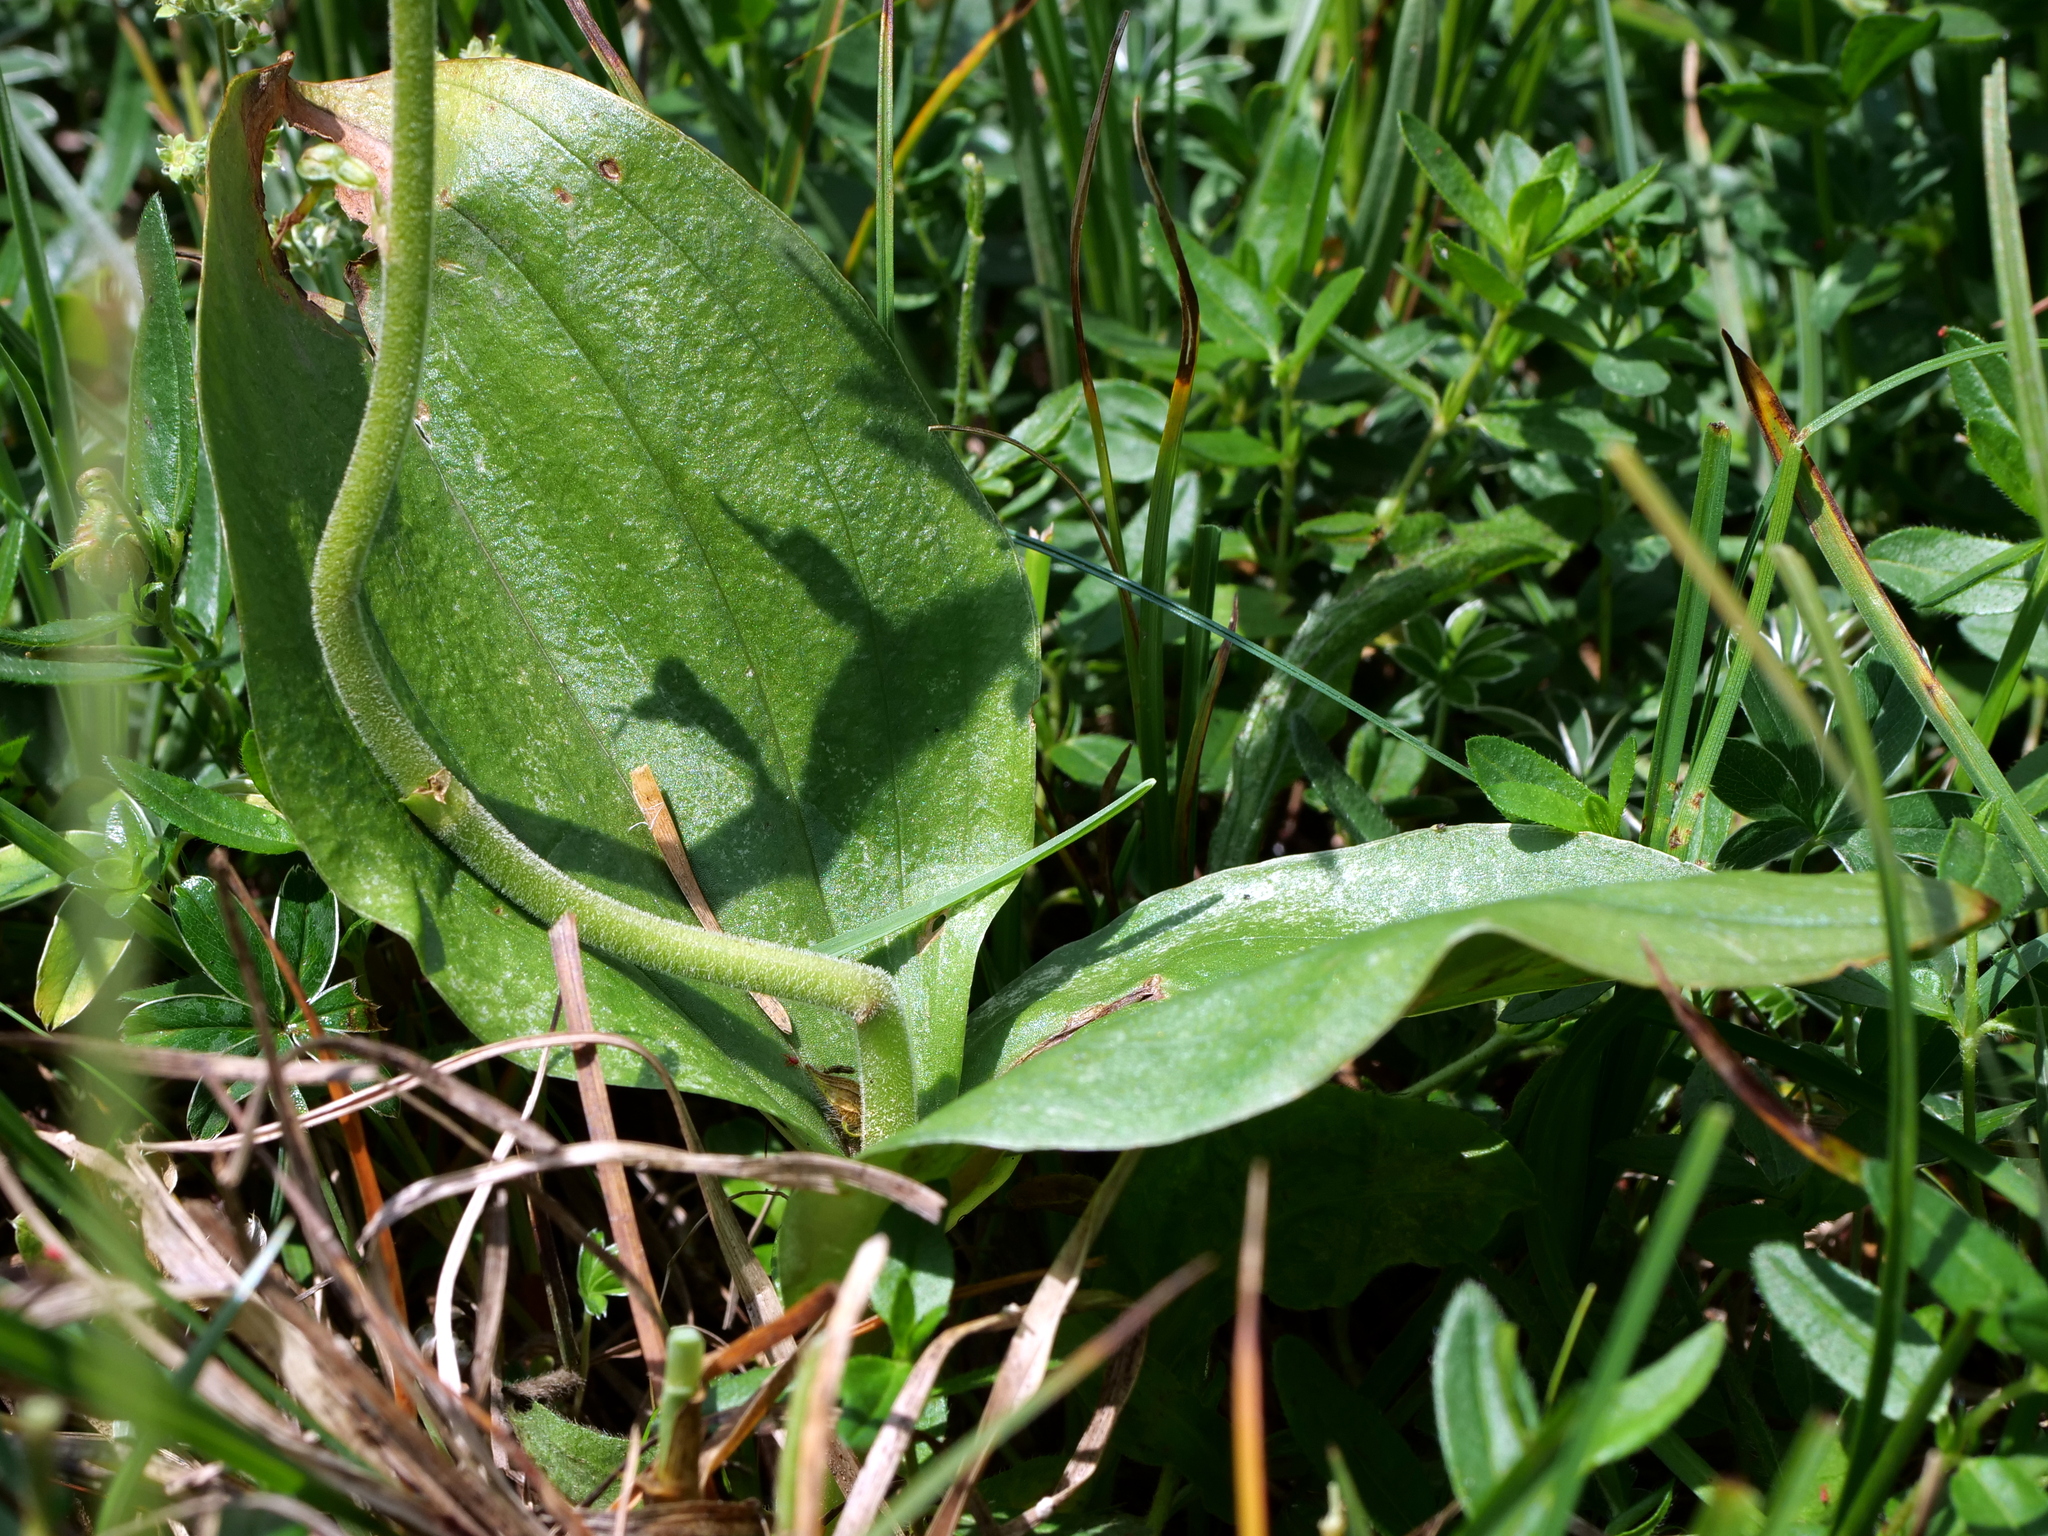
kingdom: Plantae
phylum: Tracheophyta
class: Liliopsida
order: Asparagales
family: Orchidaceae
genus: Neottia
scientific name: Neottia ovata
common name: Common twayblade
